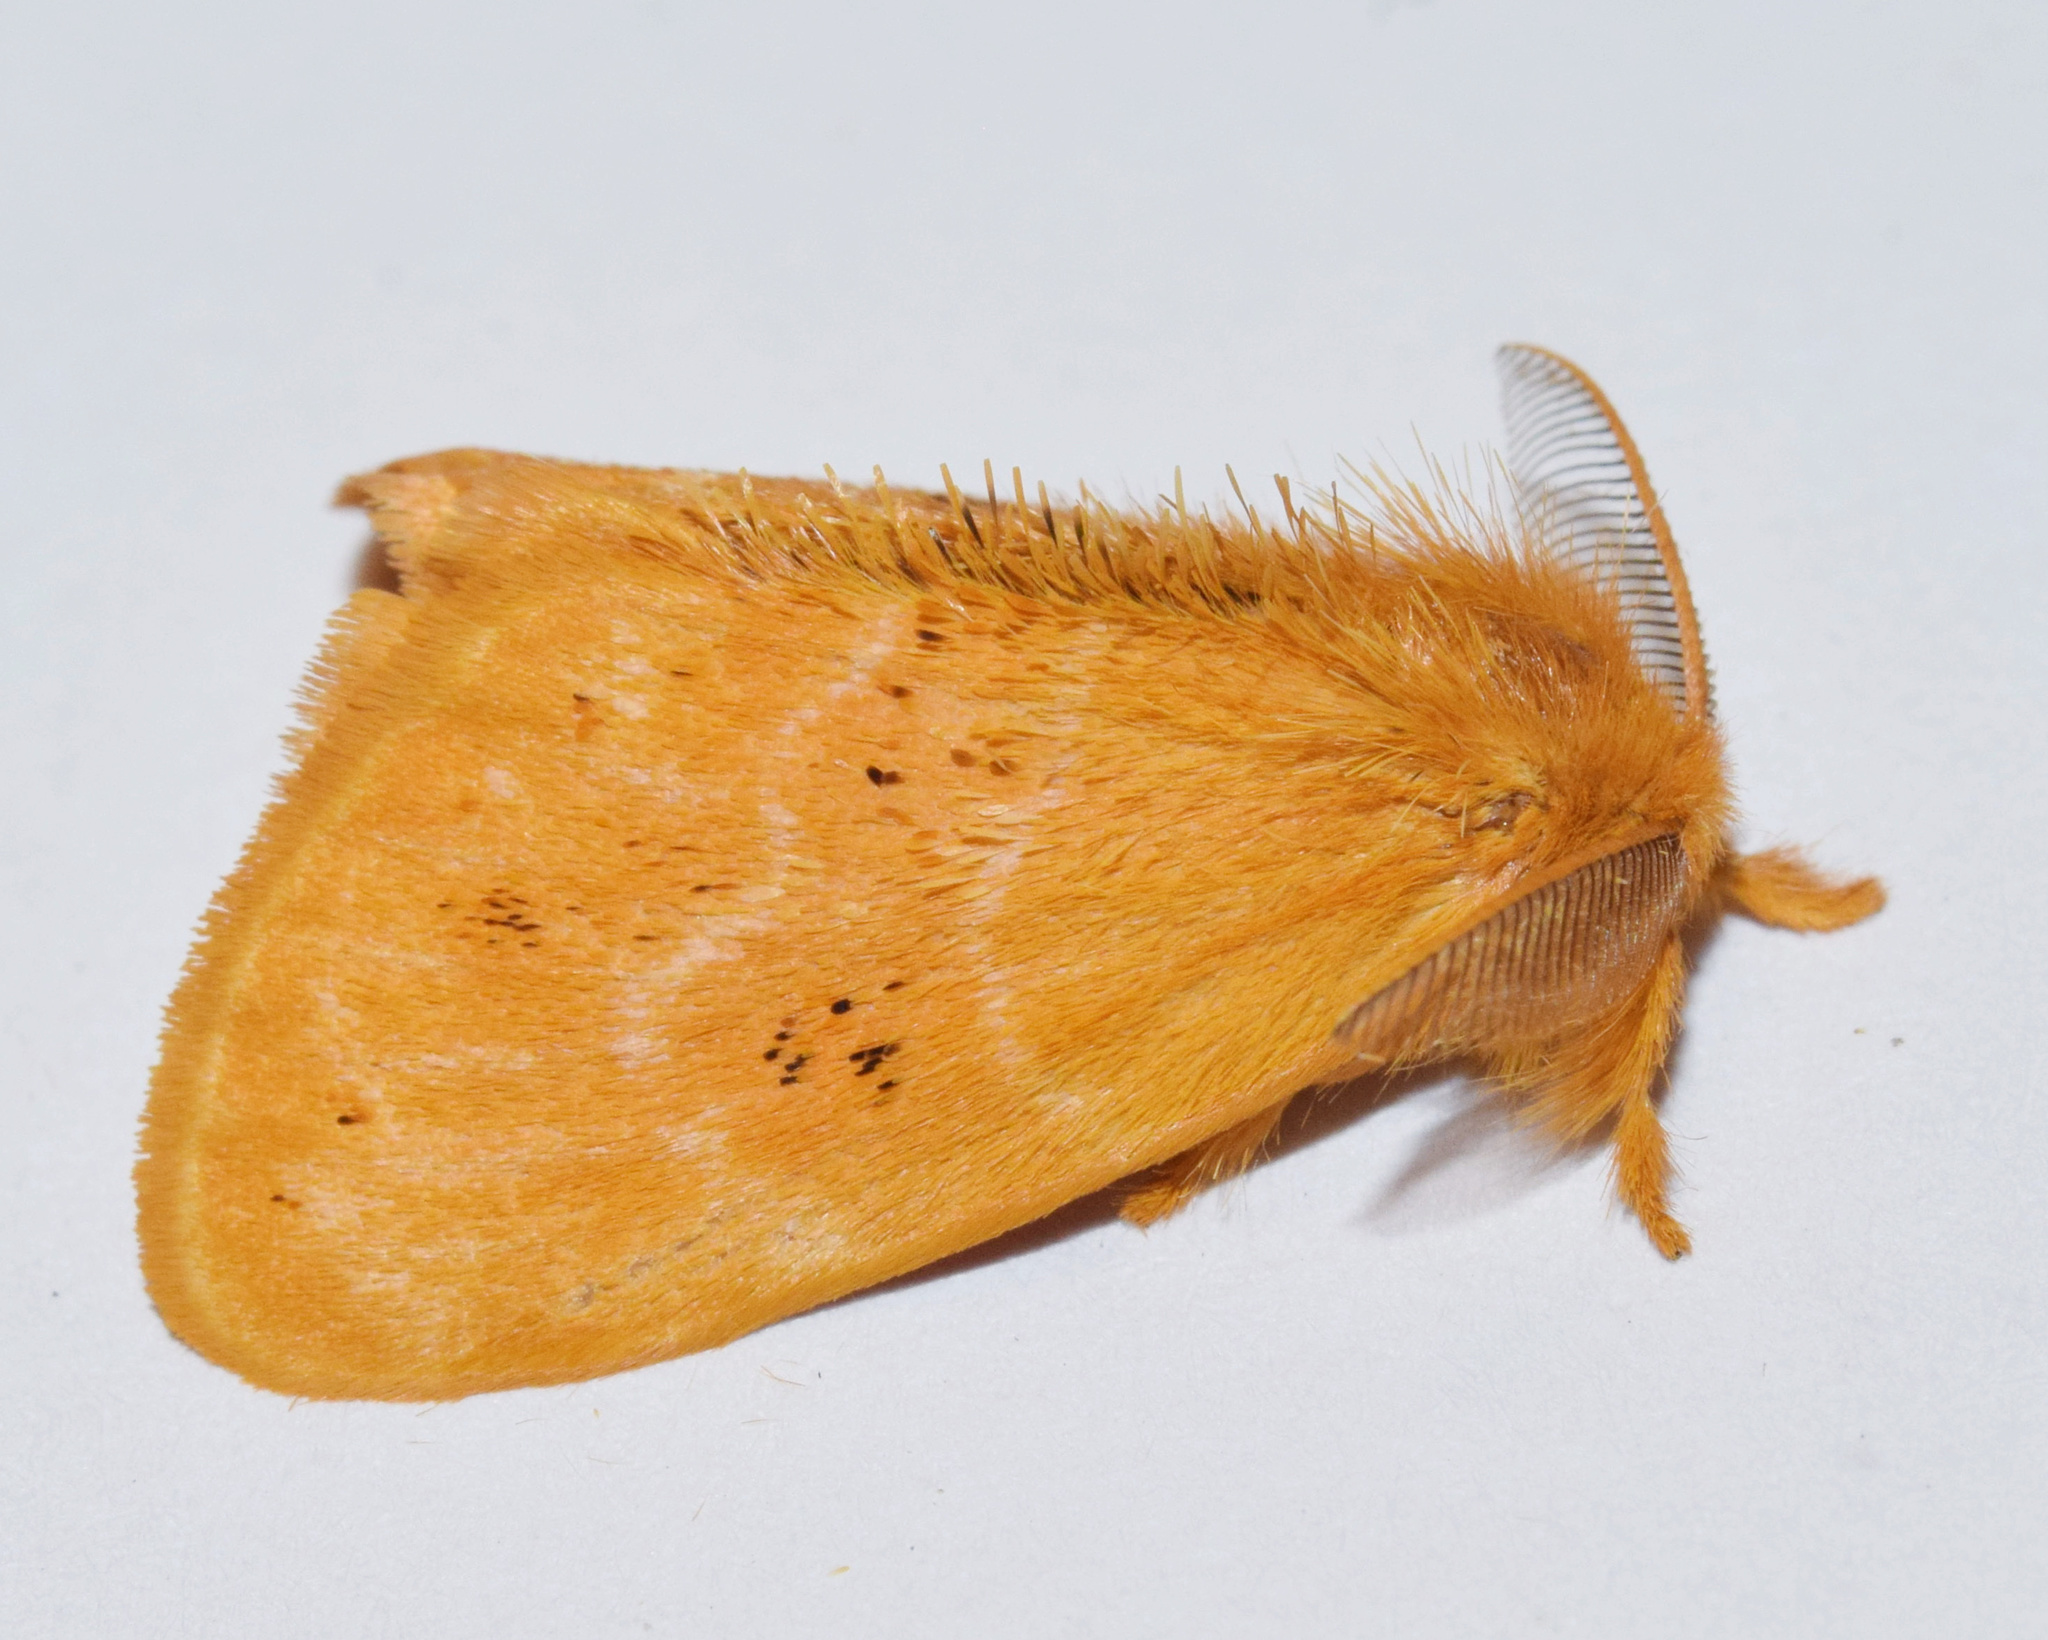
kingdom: Animalia
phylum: Arthropoda
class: Insecta
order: Lepidoptera
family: Erebidae
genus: Euproctis
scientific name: Euproctis punctifera
